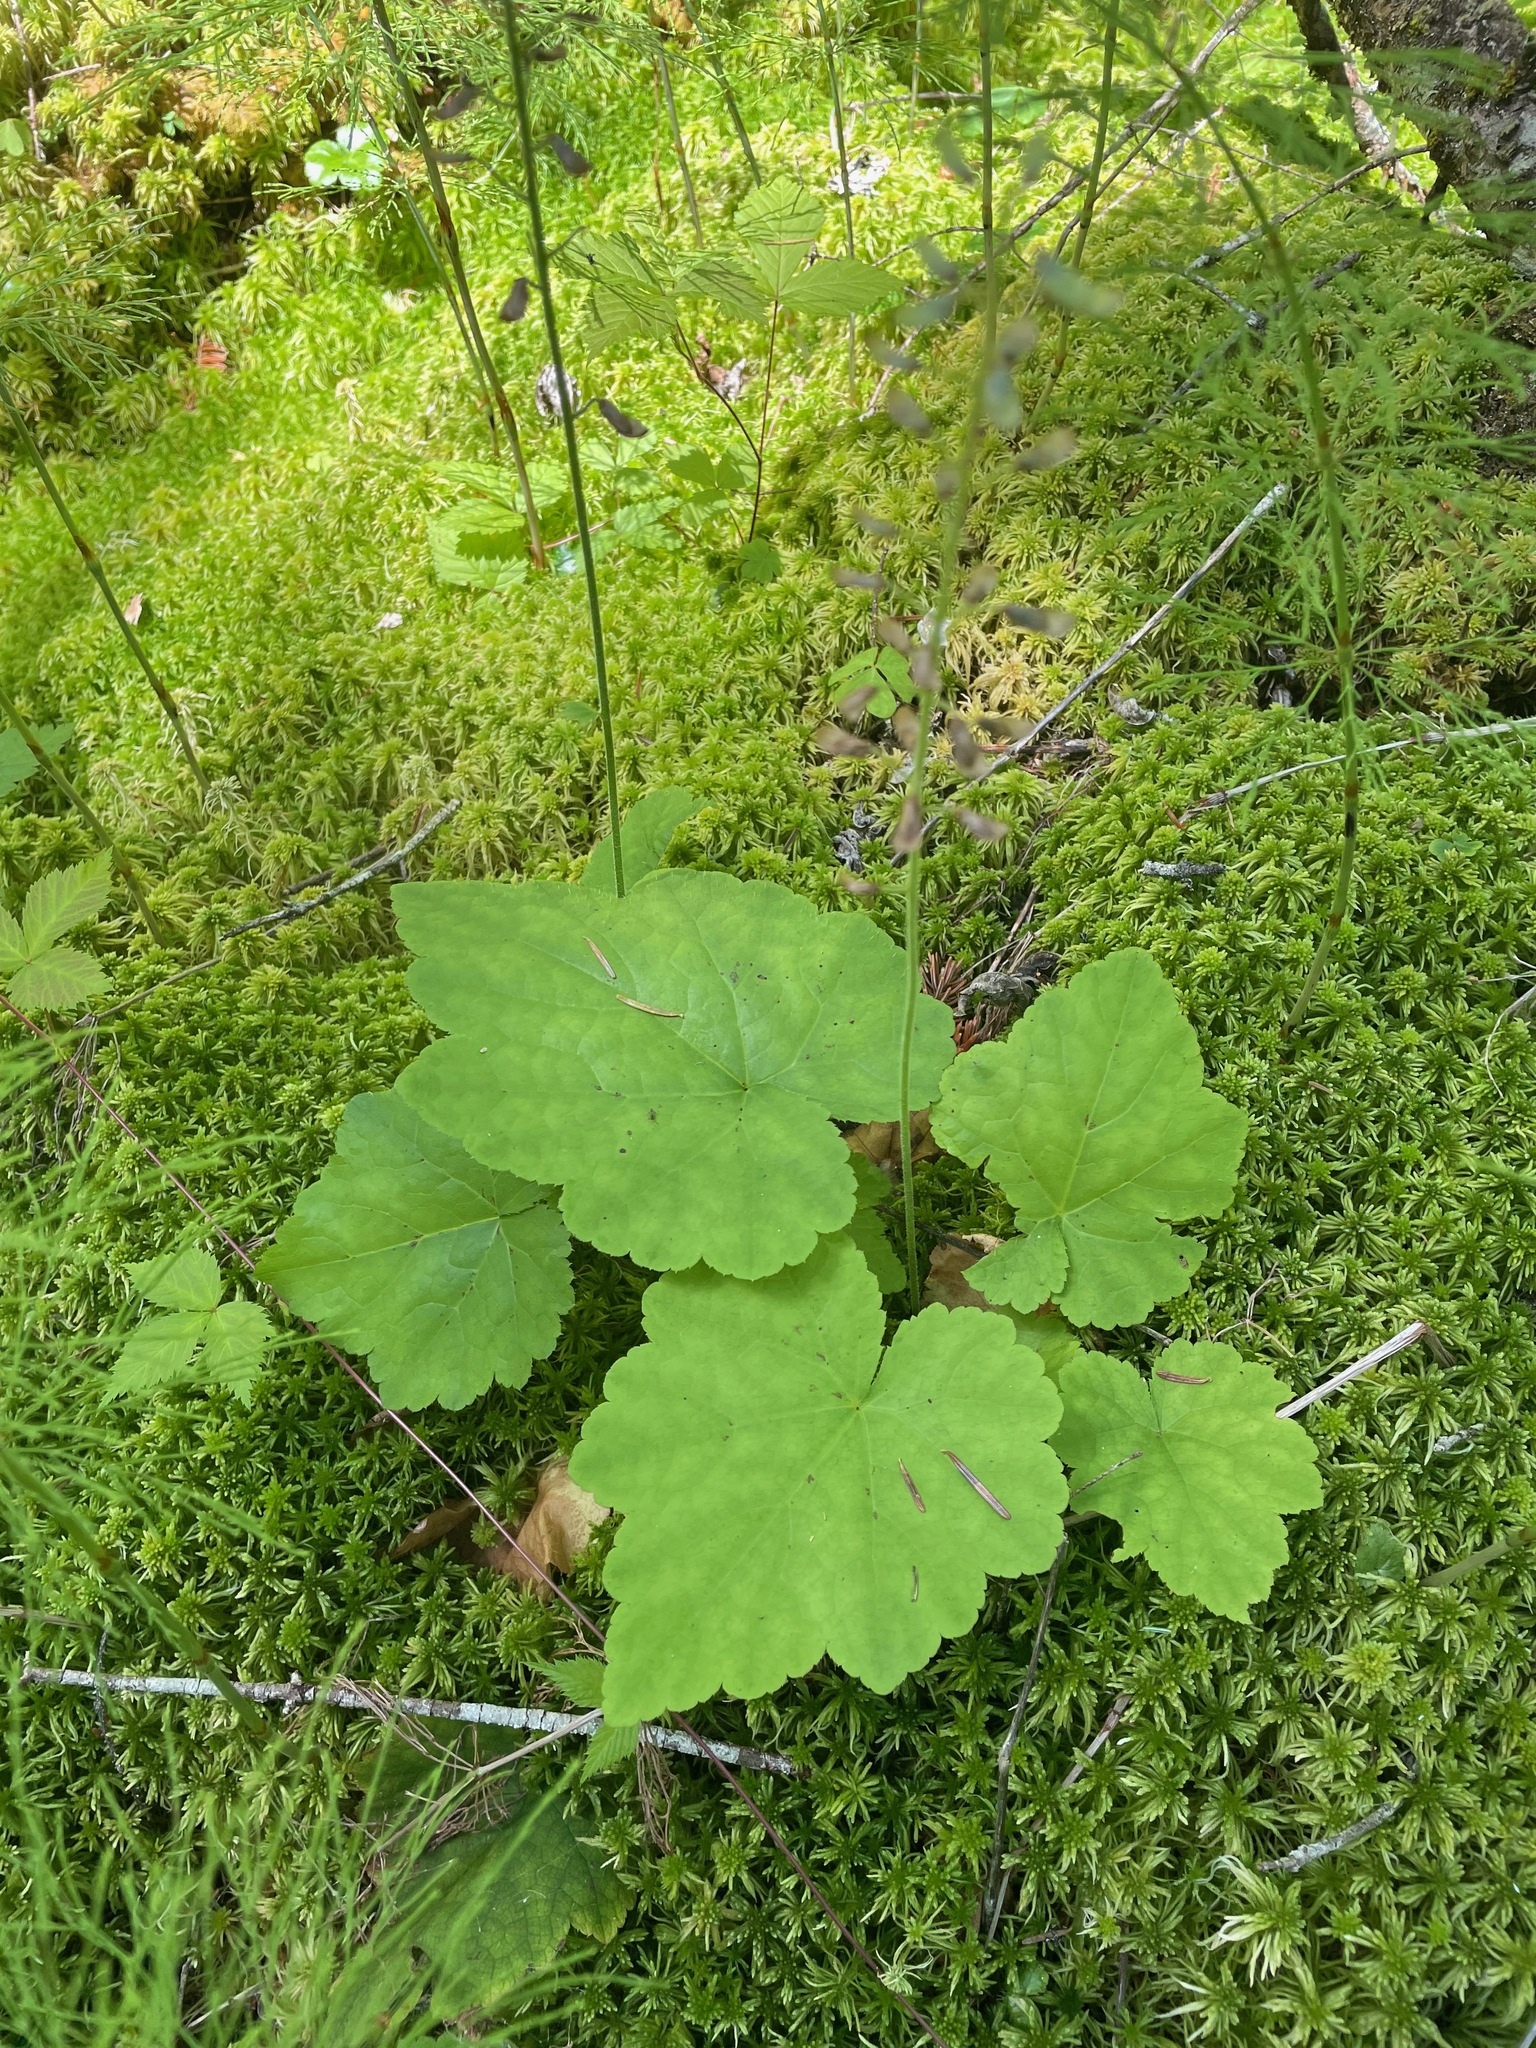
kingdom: Plantae
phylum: Tracheophyta
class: Magnoliopsida
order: Saxifragales
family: Saxifragaceae
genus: Tiarella
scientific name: Tiarella stolonifera
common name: Stoloniferous foamflower
